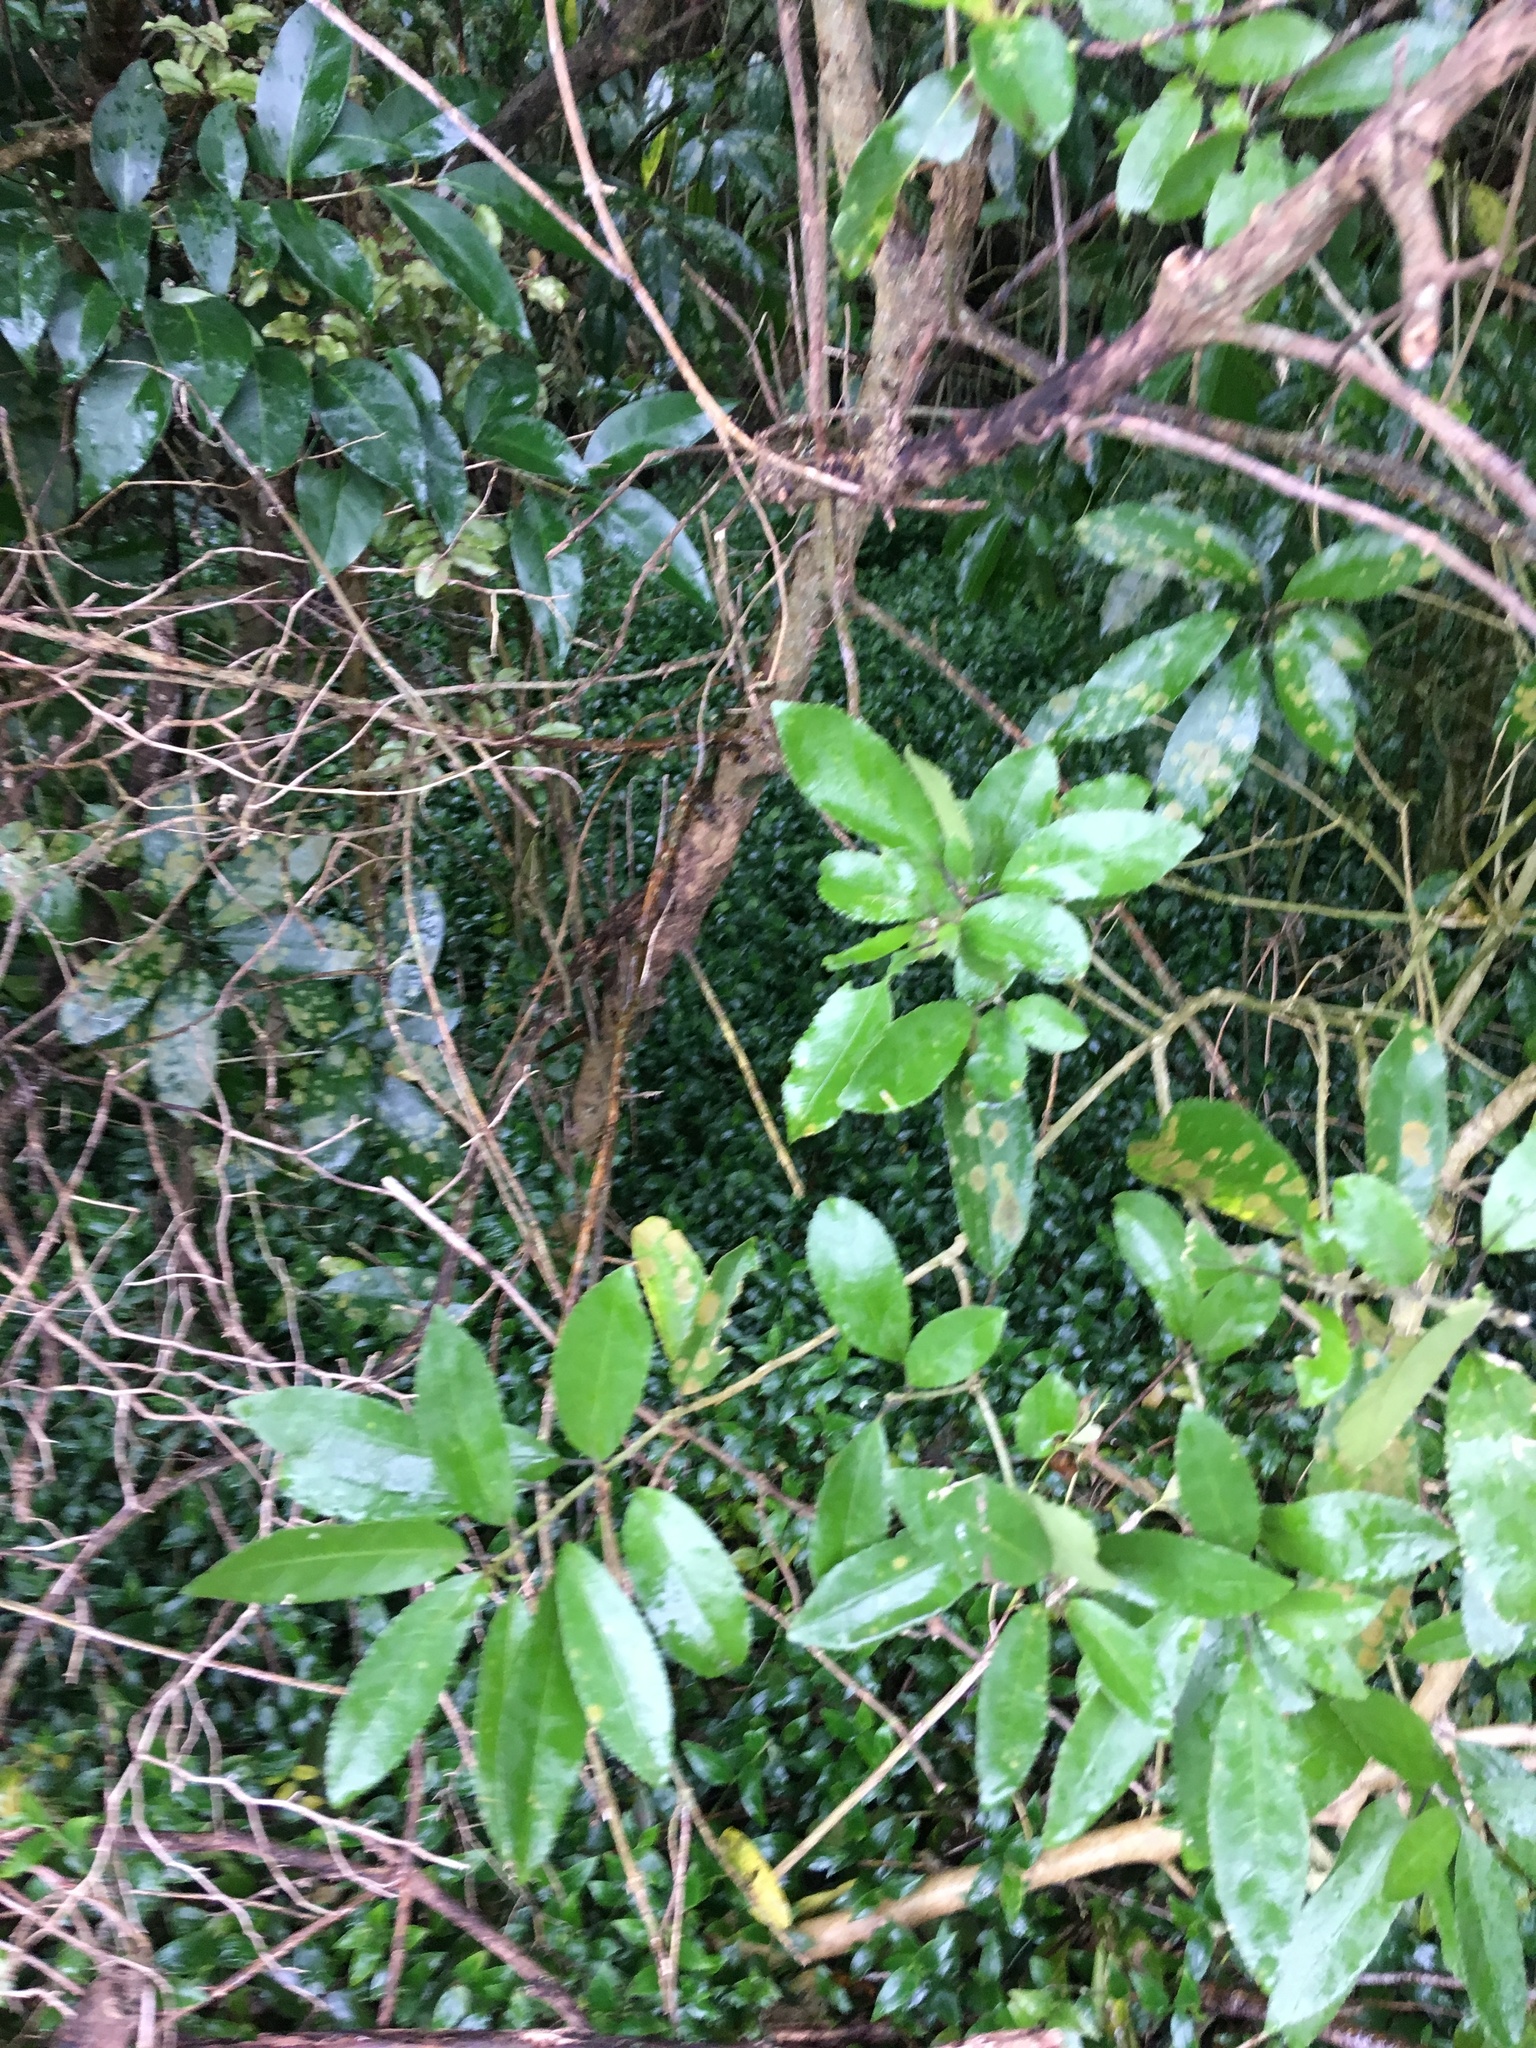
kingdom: Plantae
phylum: Tracheophyta
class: Magnoliopsida
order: Lamiales
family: Oleaceae
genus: Ligustrum
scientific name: Ligustrum lucidum
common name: Glossy privet
